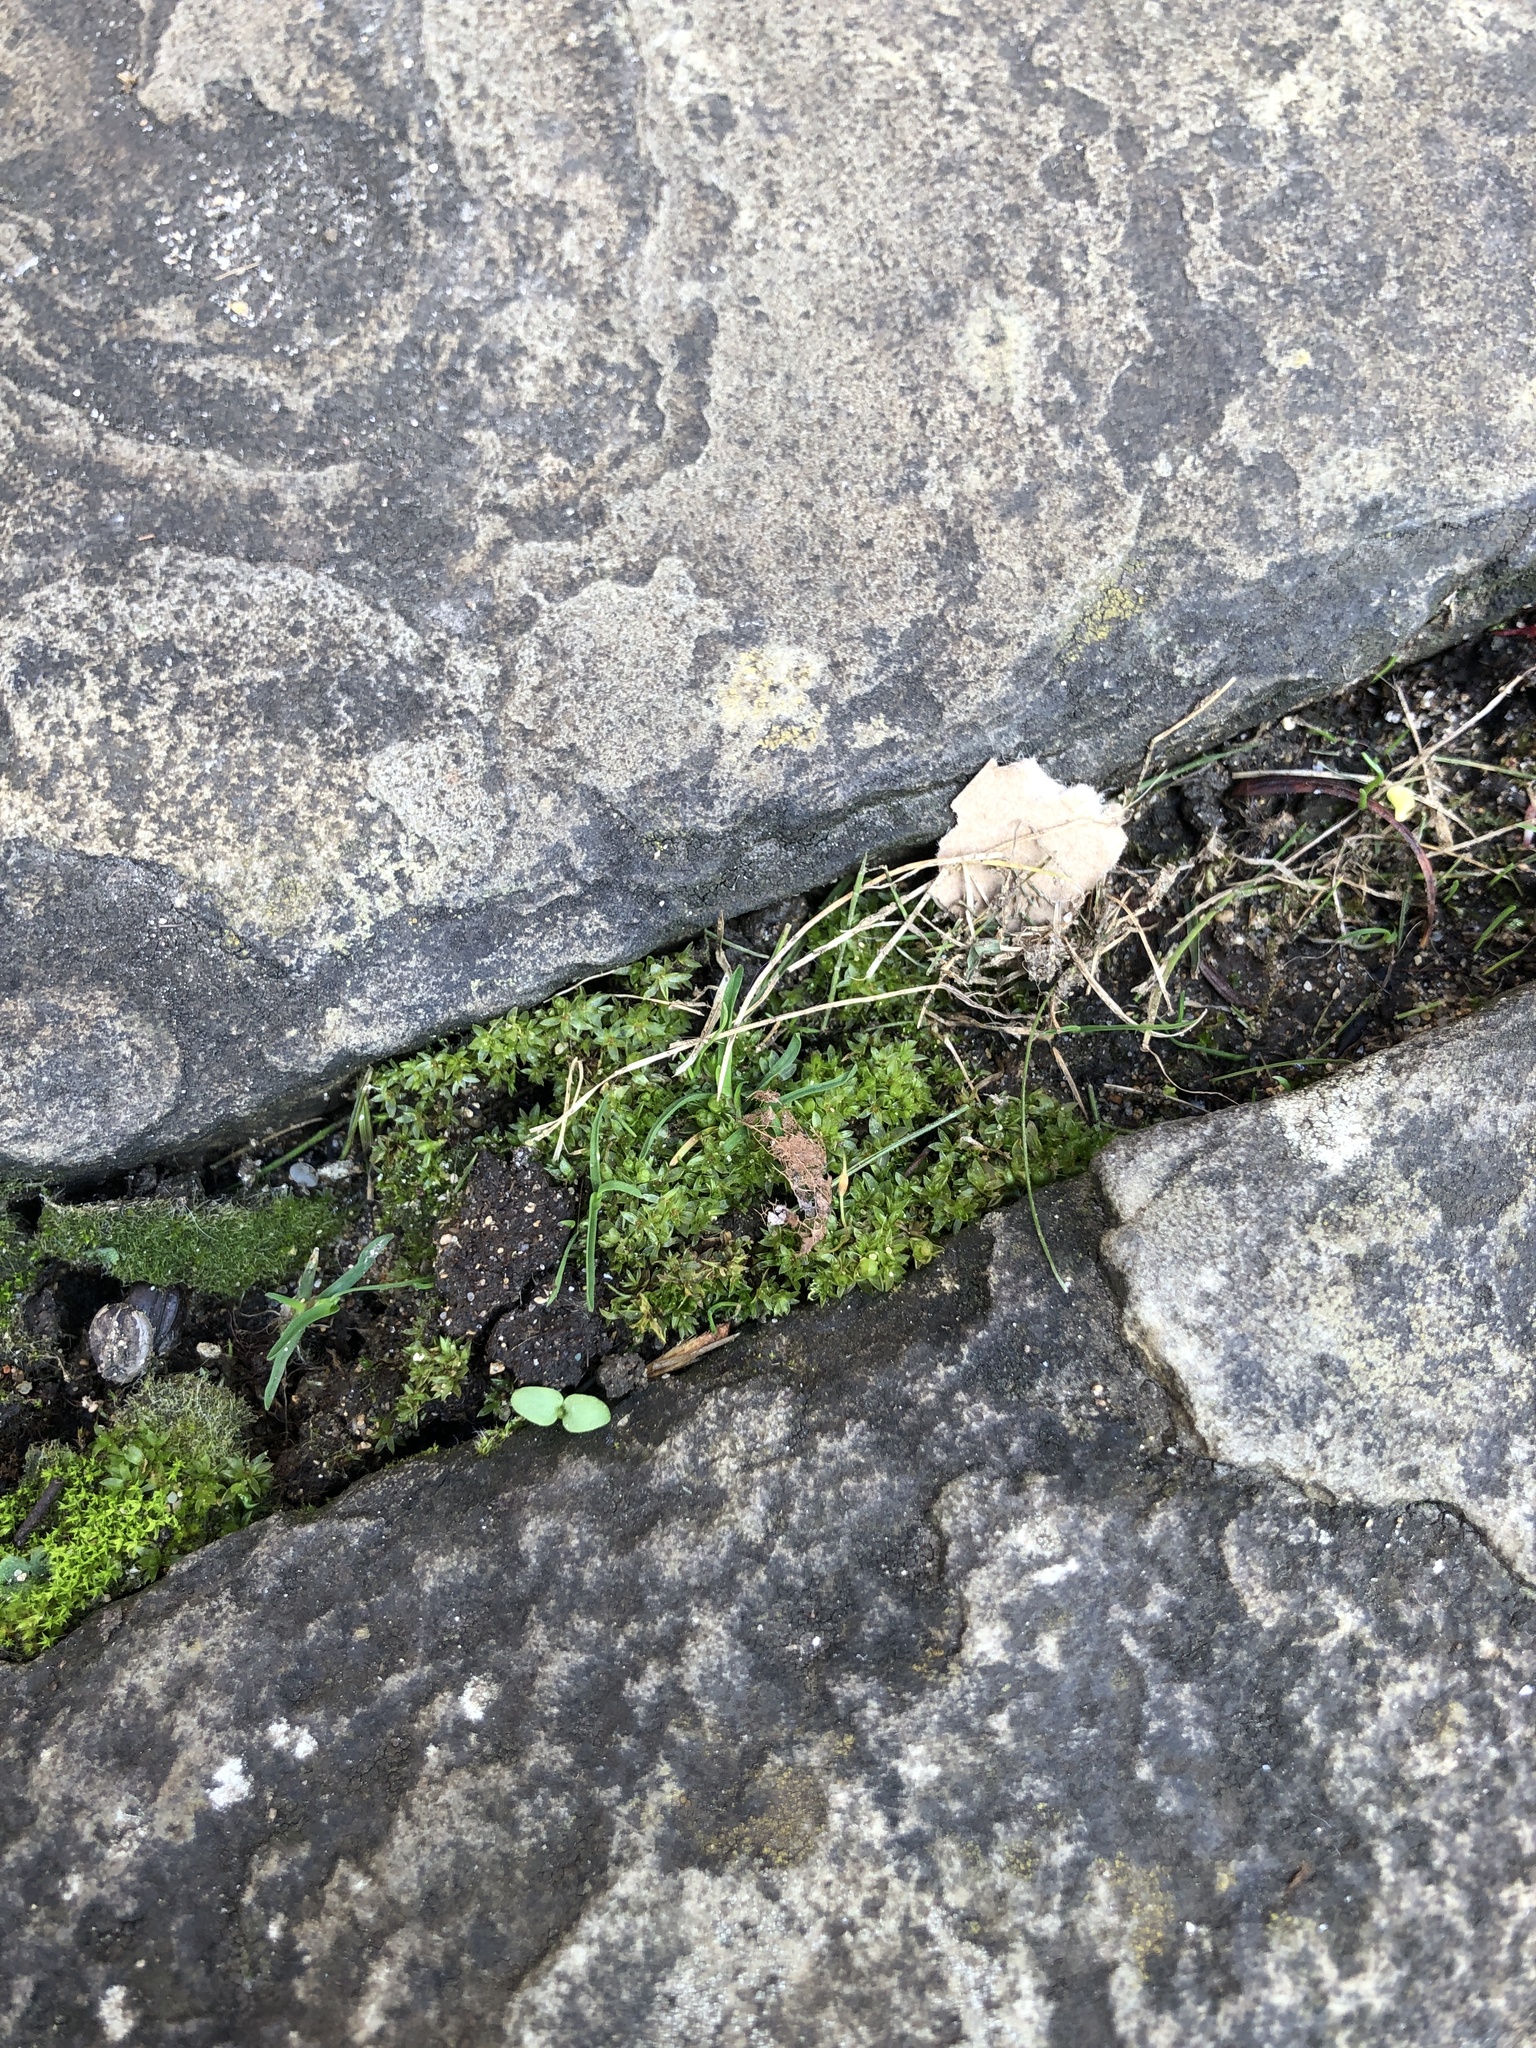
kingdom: Plantae
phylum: Bryophyta
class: Bryopsida
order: Funariales
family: Funariaceae
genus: Funaria
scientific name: Funaria hygrometrica
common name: Common cord moss
